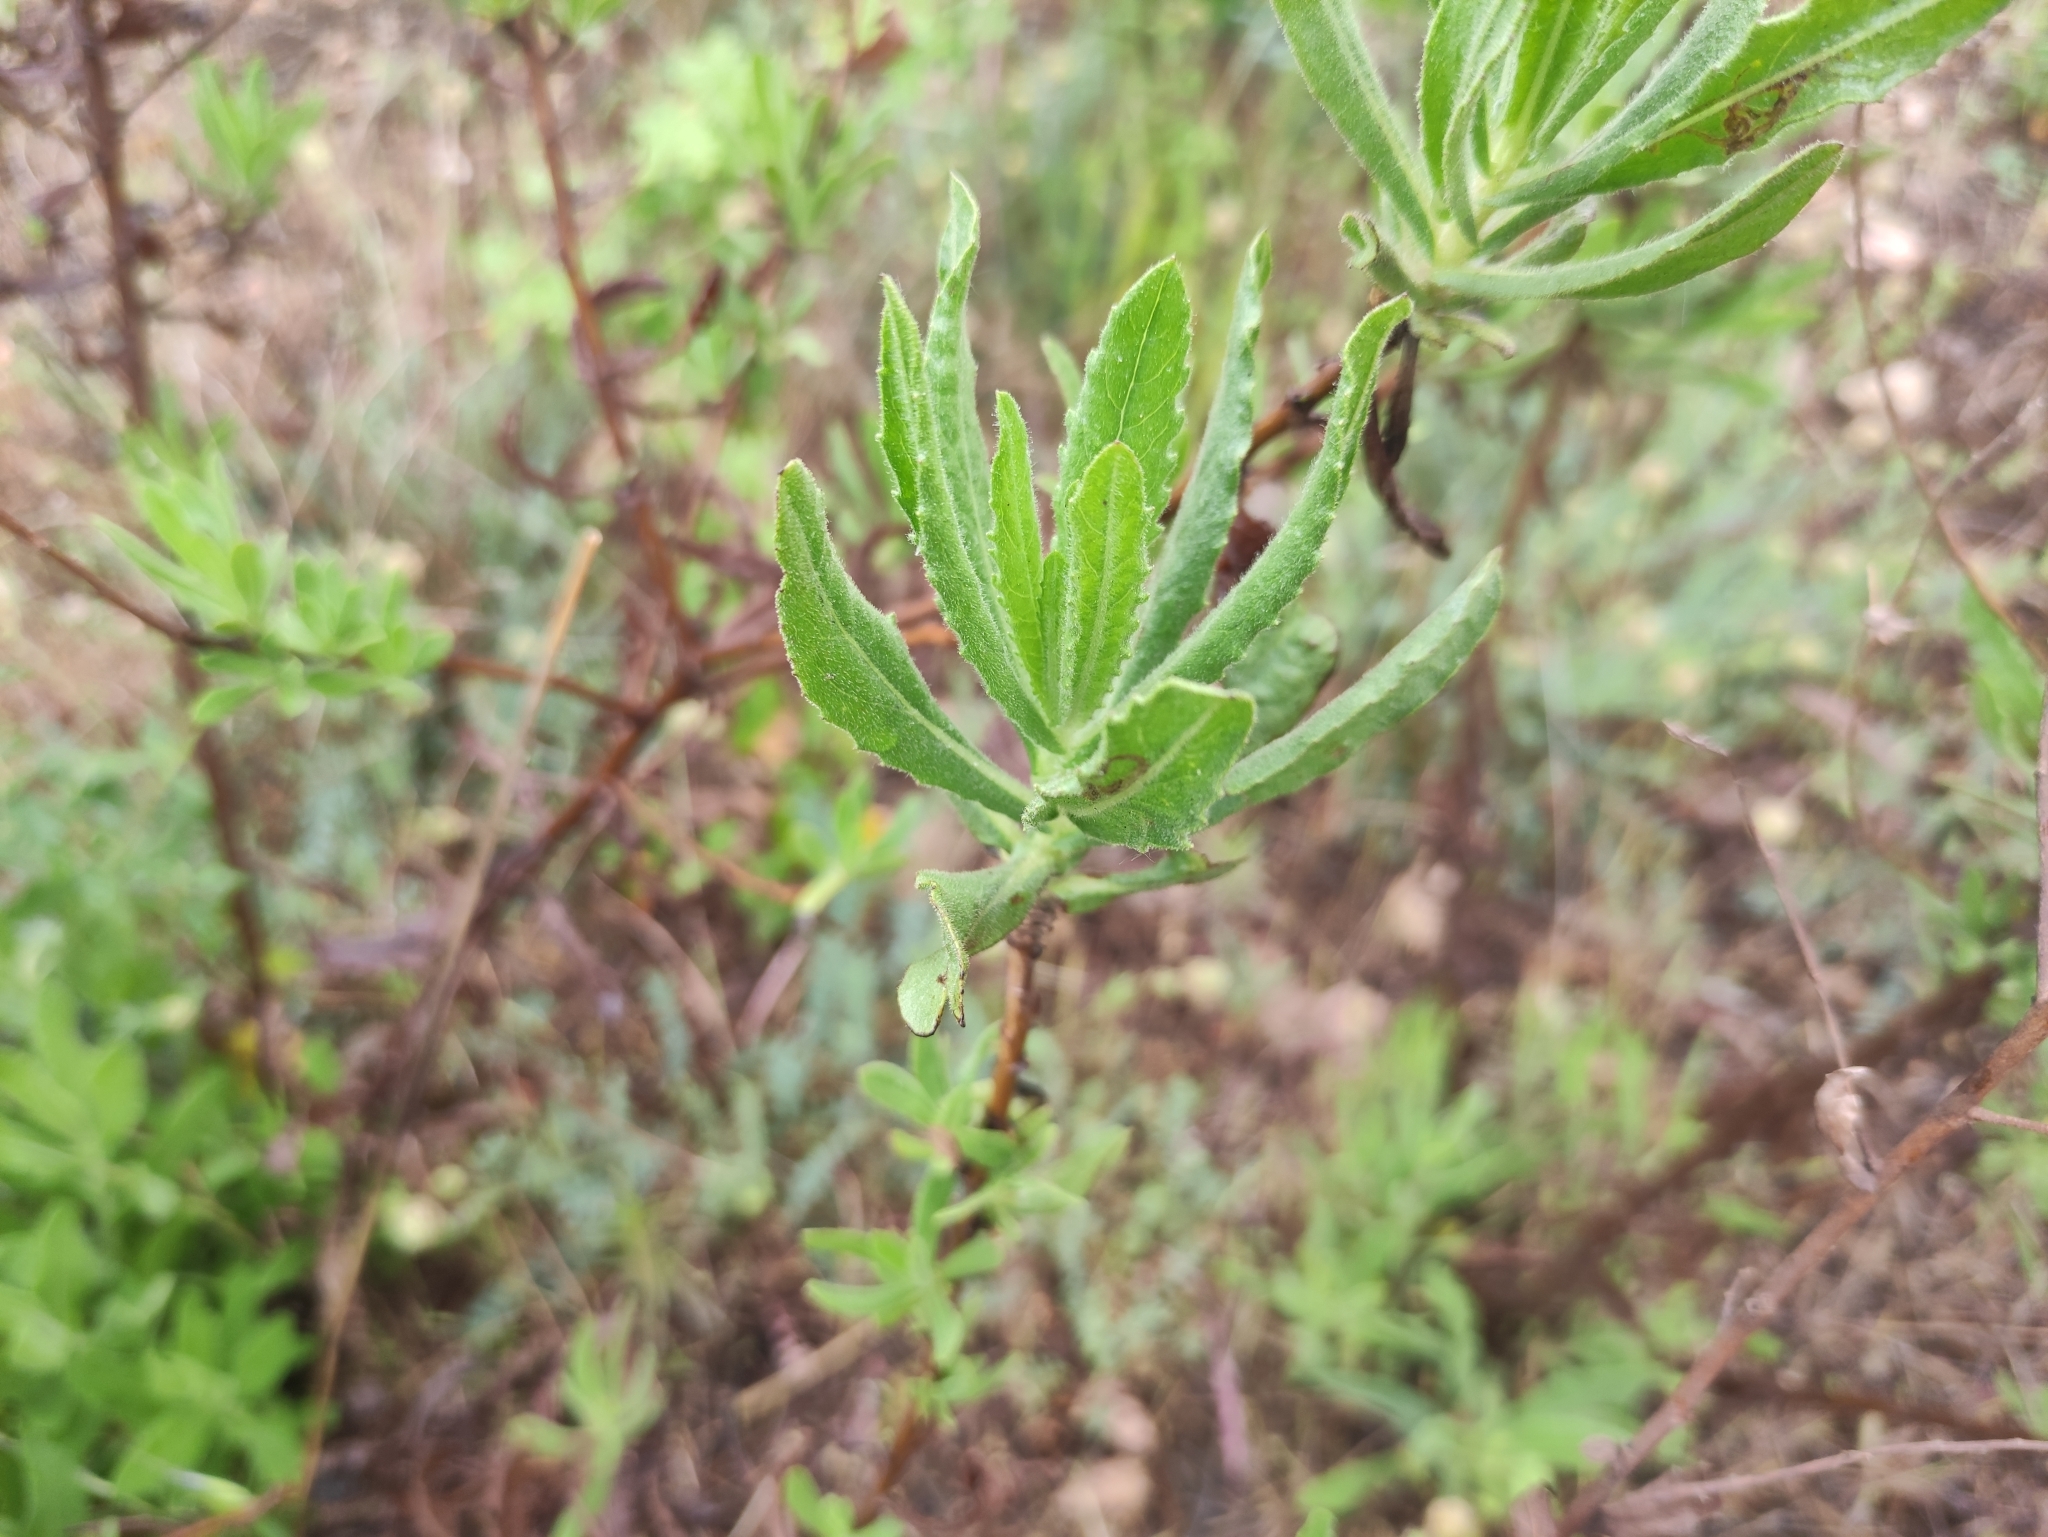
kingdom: Plantae
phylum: Tracheophyta
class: Magnoliopsida
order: Asterales
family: Asteraceae
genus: Dittrichia
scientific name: Dittrichia viscosa
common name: Woody fleabane
